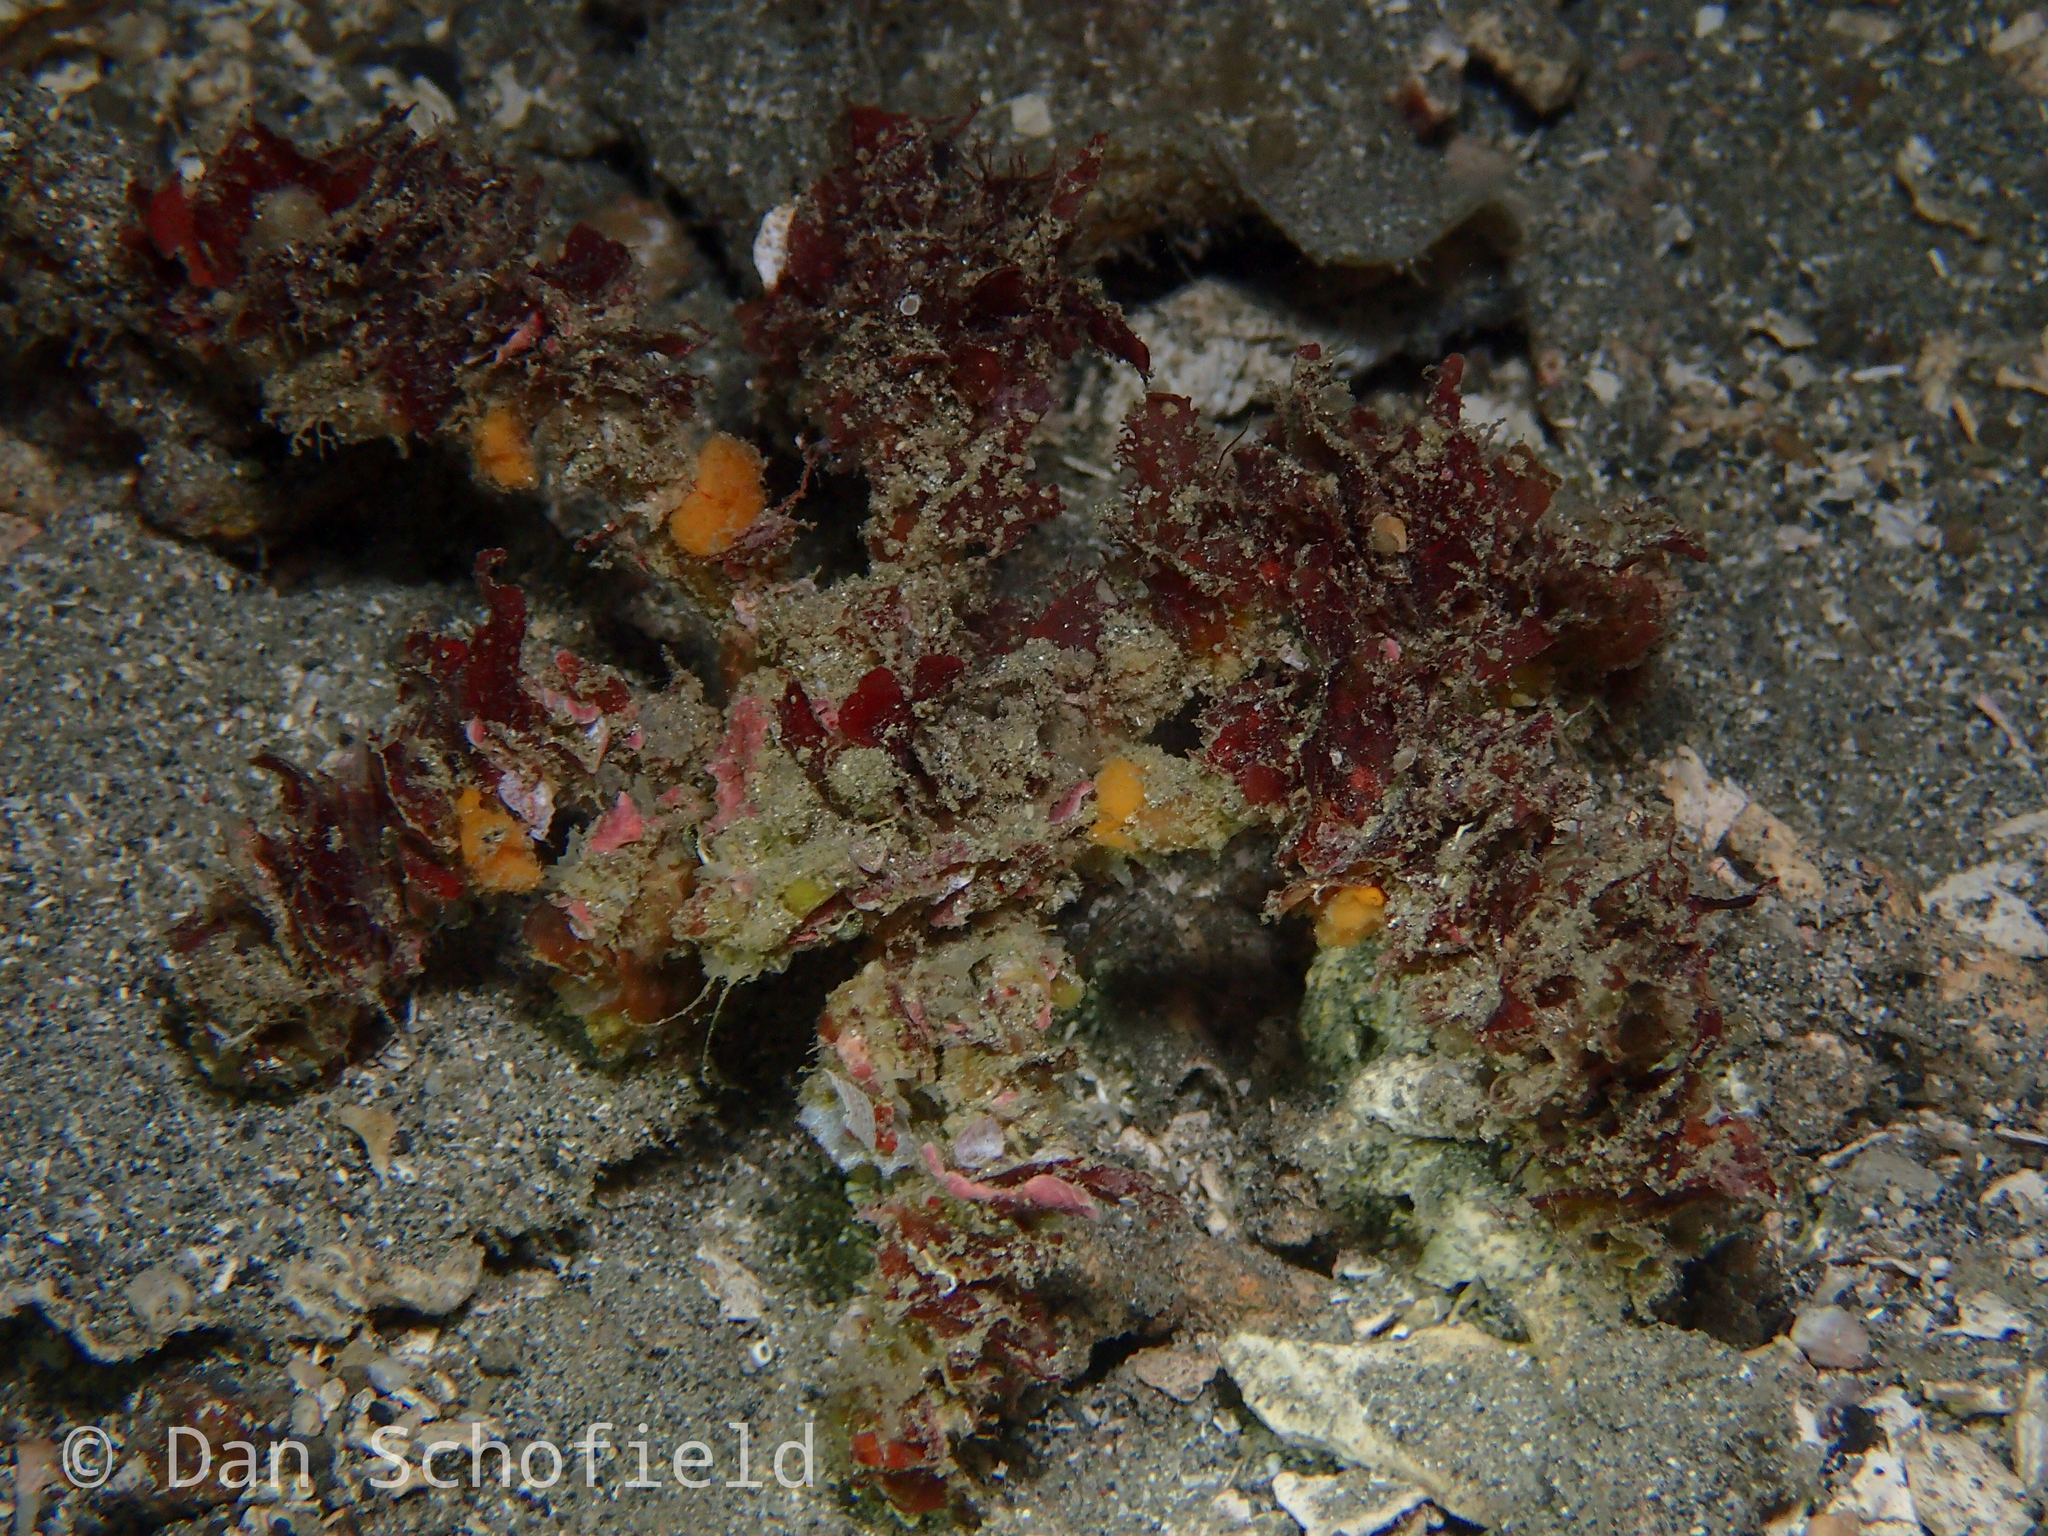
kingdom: Animalia
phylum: Arthropoda
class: Malacostraca
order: Decapoda
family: Inachidae
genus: Camposcia
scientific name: Camposcia retusa
